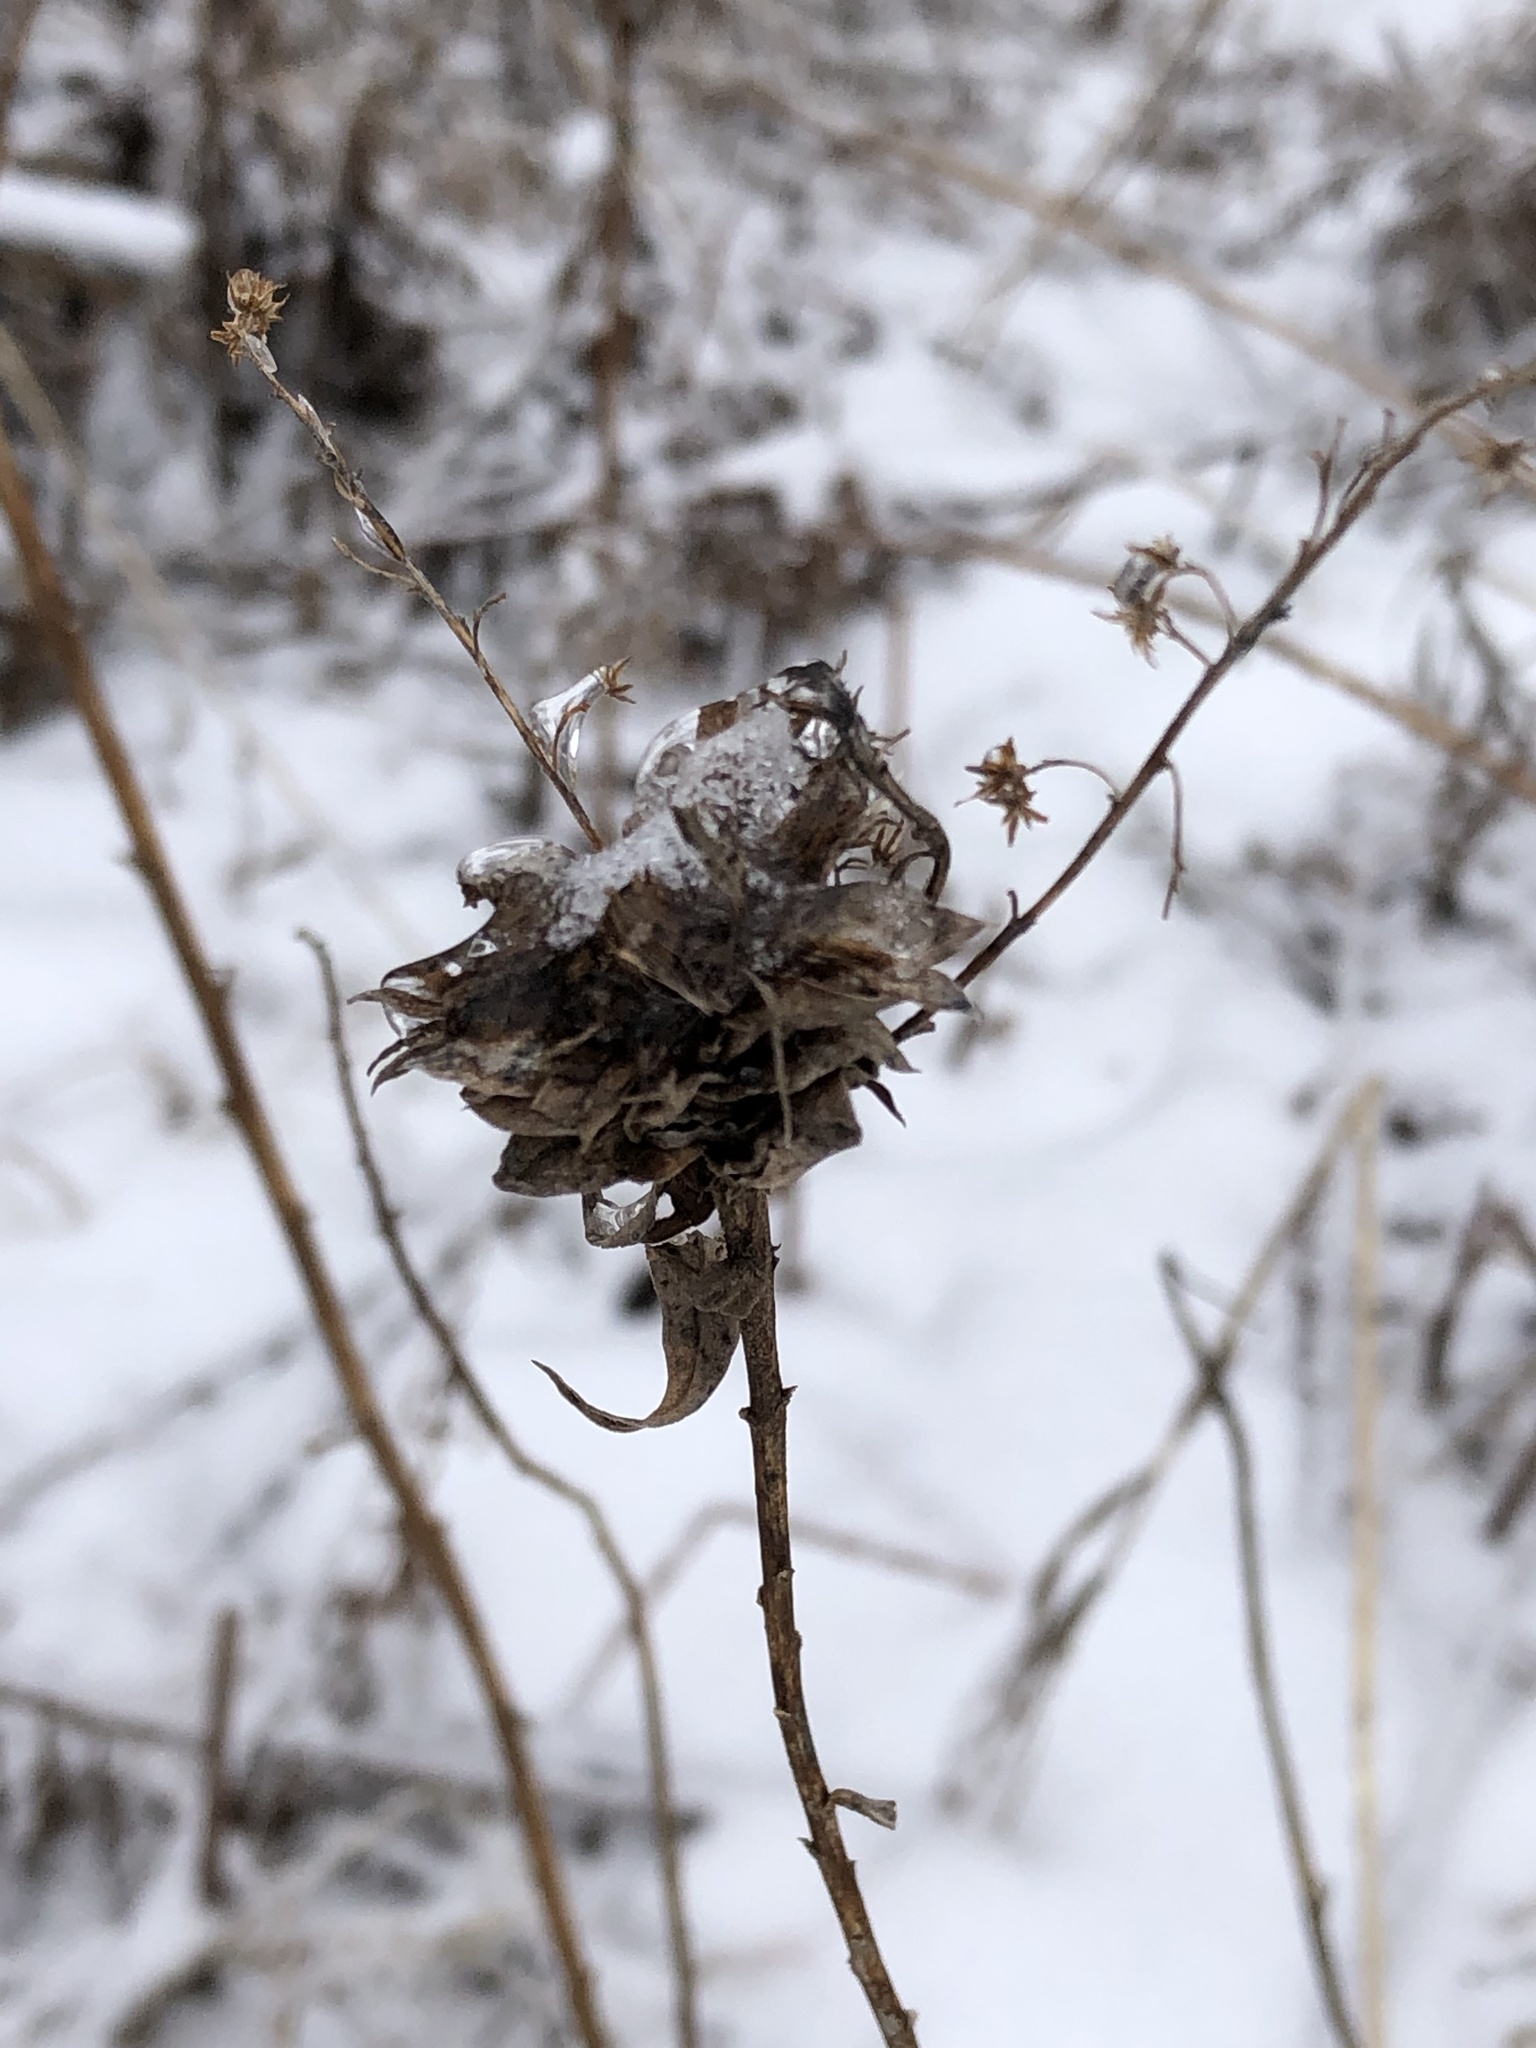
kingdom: Animalia
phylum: Arthropoda
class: Insecta
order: Diptera
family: Cecidomyiidae
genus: Rhopalomyia
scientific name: Rhopalomyia solidaginis
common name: Goldenrod bunch gall midge
